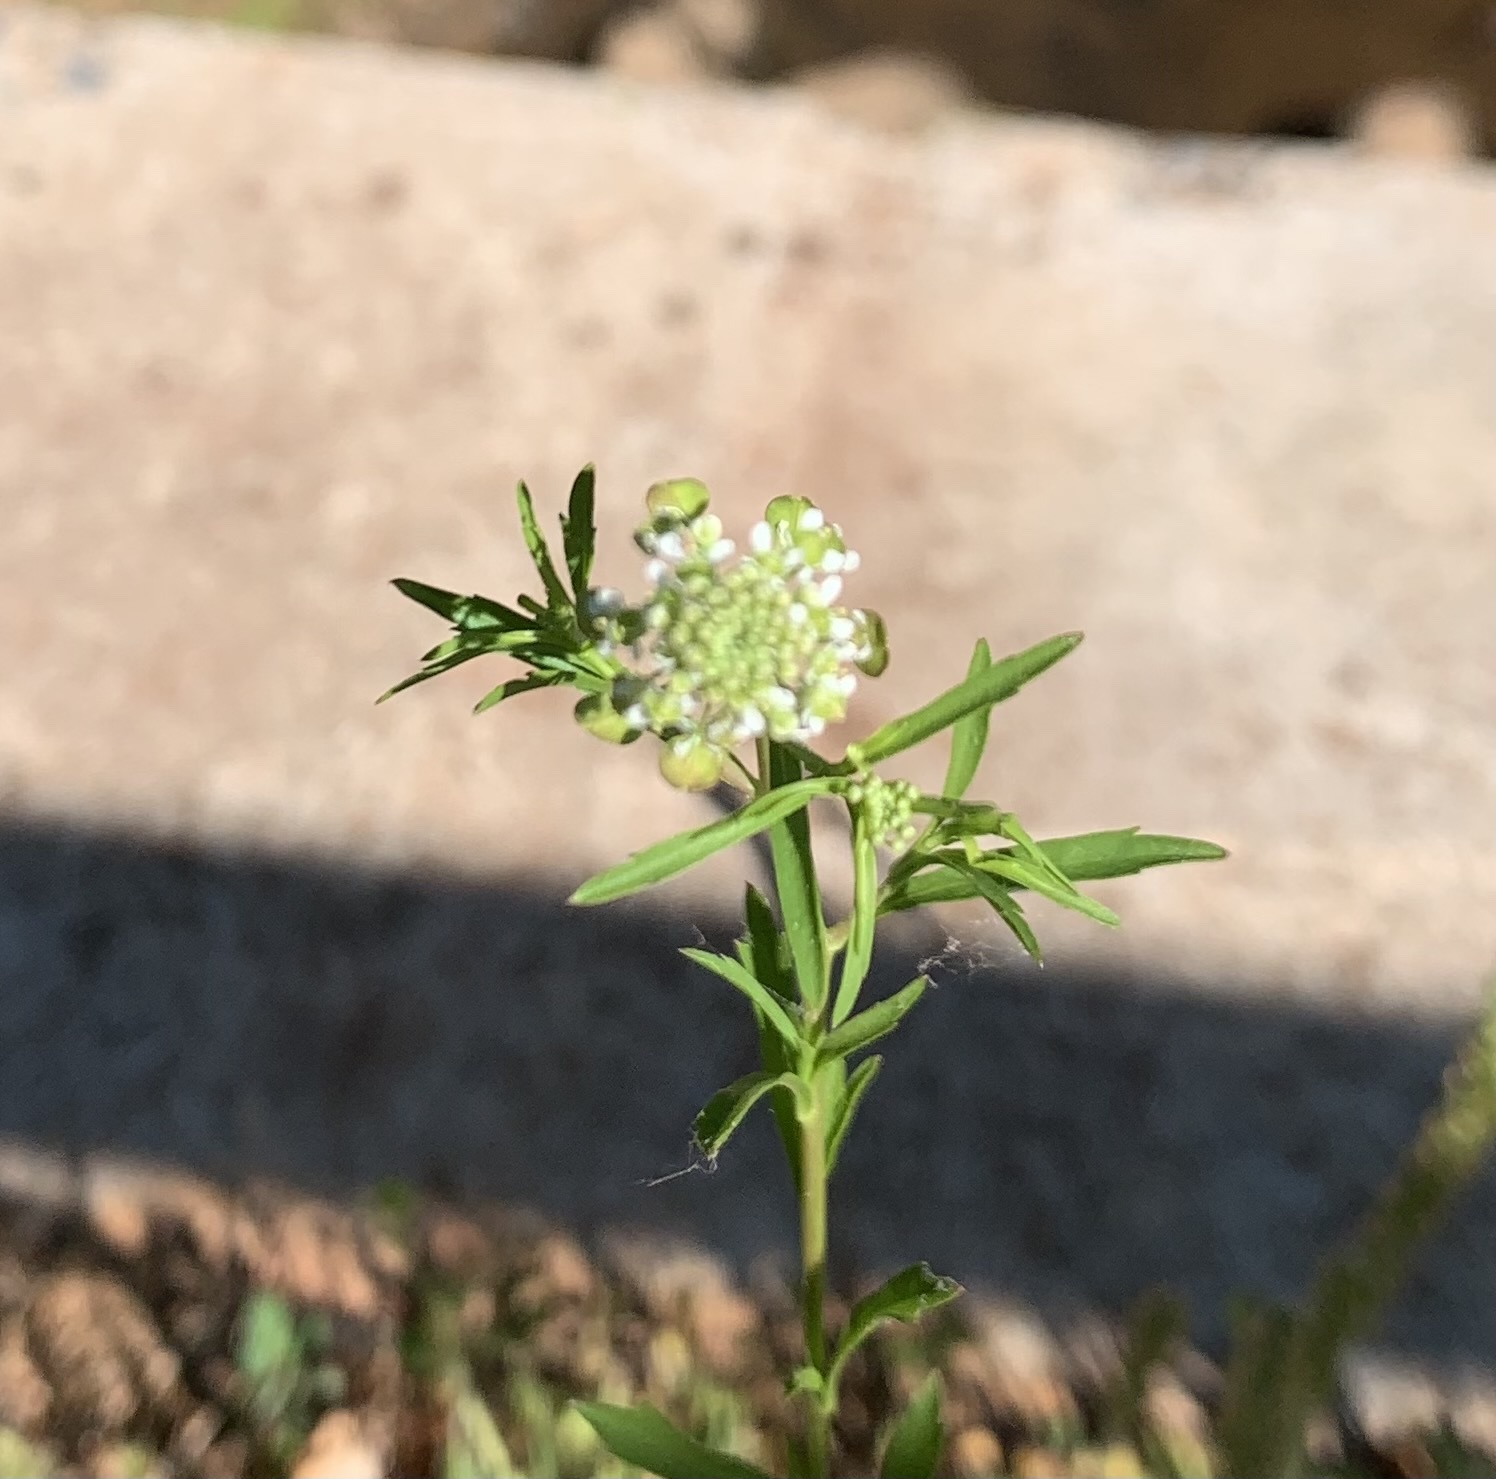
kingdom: Plantae
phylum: Tracheophyta
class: Magnoliopsida
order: Brassicales
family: Brassicaceae
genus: Lepidium
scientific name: Lepidium virginicum
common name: Least pepperwort
